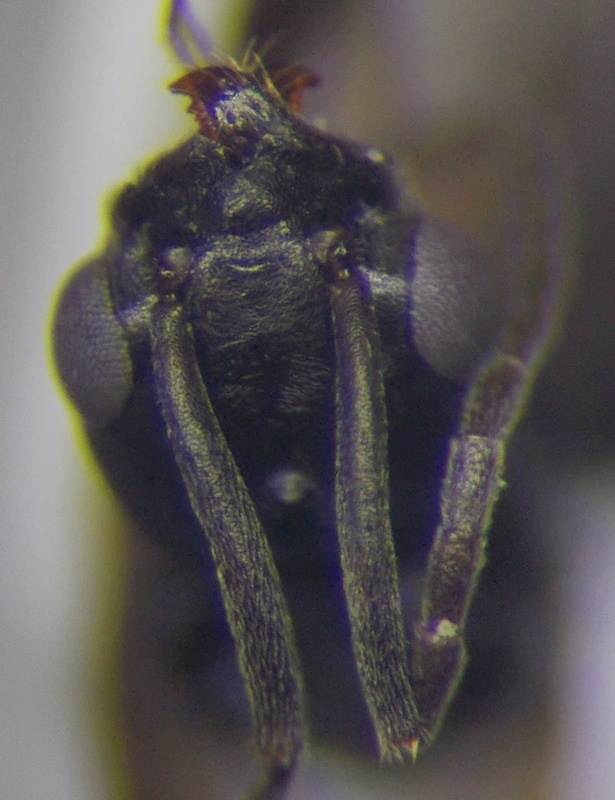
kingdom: Animalia
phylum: Arthropoda
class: Insecta
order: Hymenoptera
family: Formicidae
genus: Tapinoma
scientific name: Tapinoma erraticum
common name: Erratic ant
